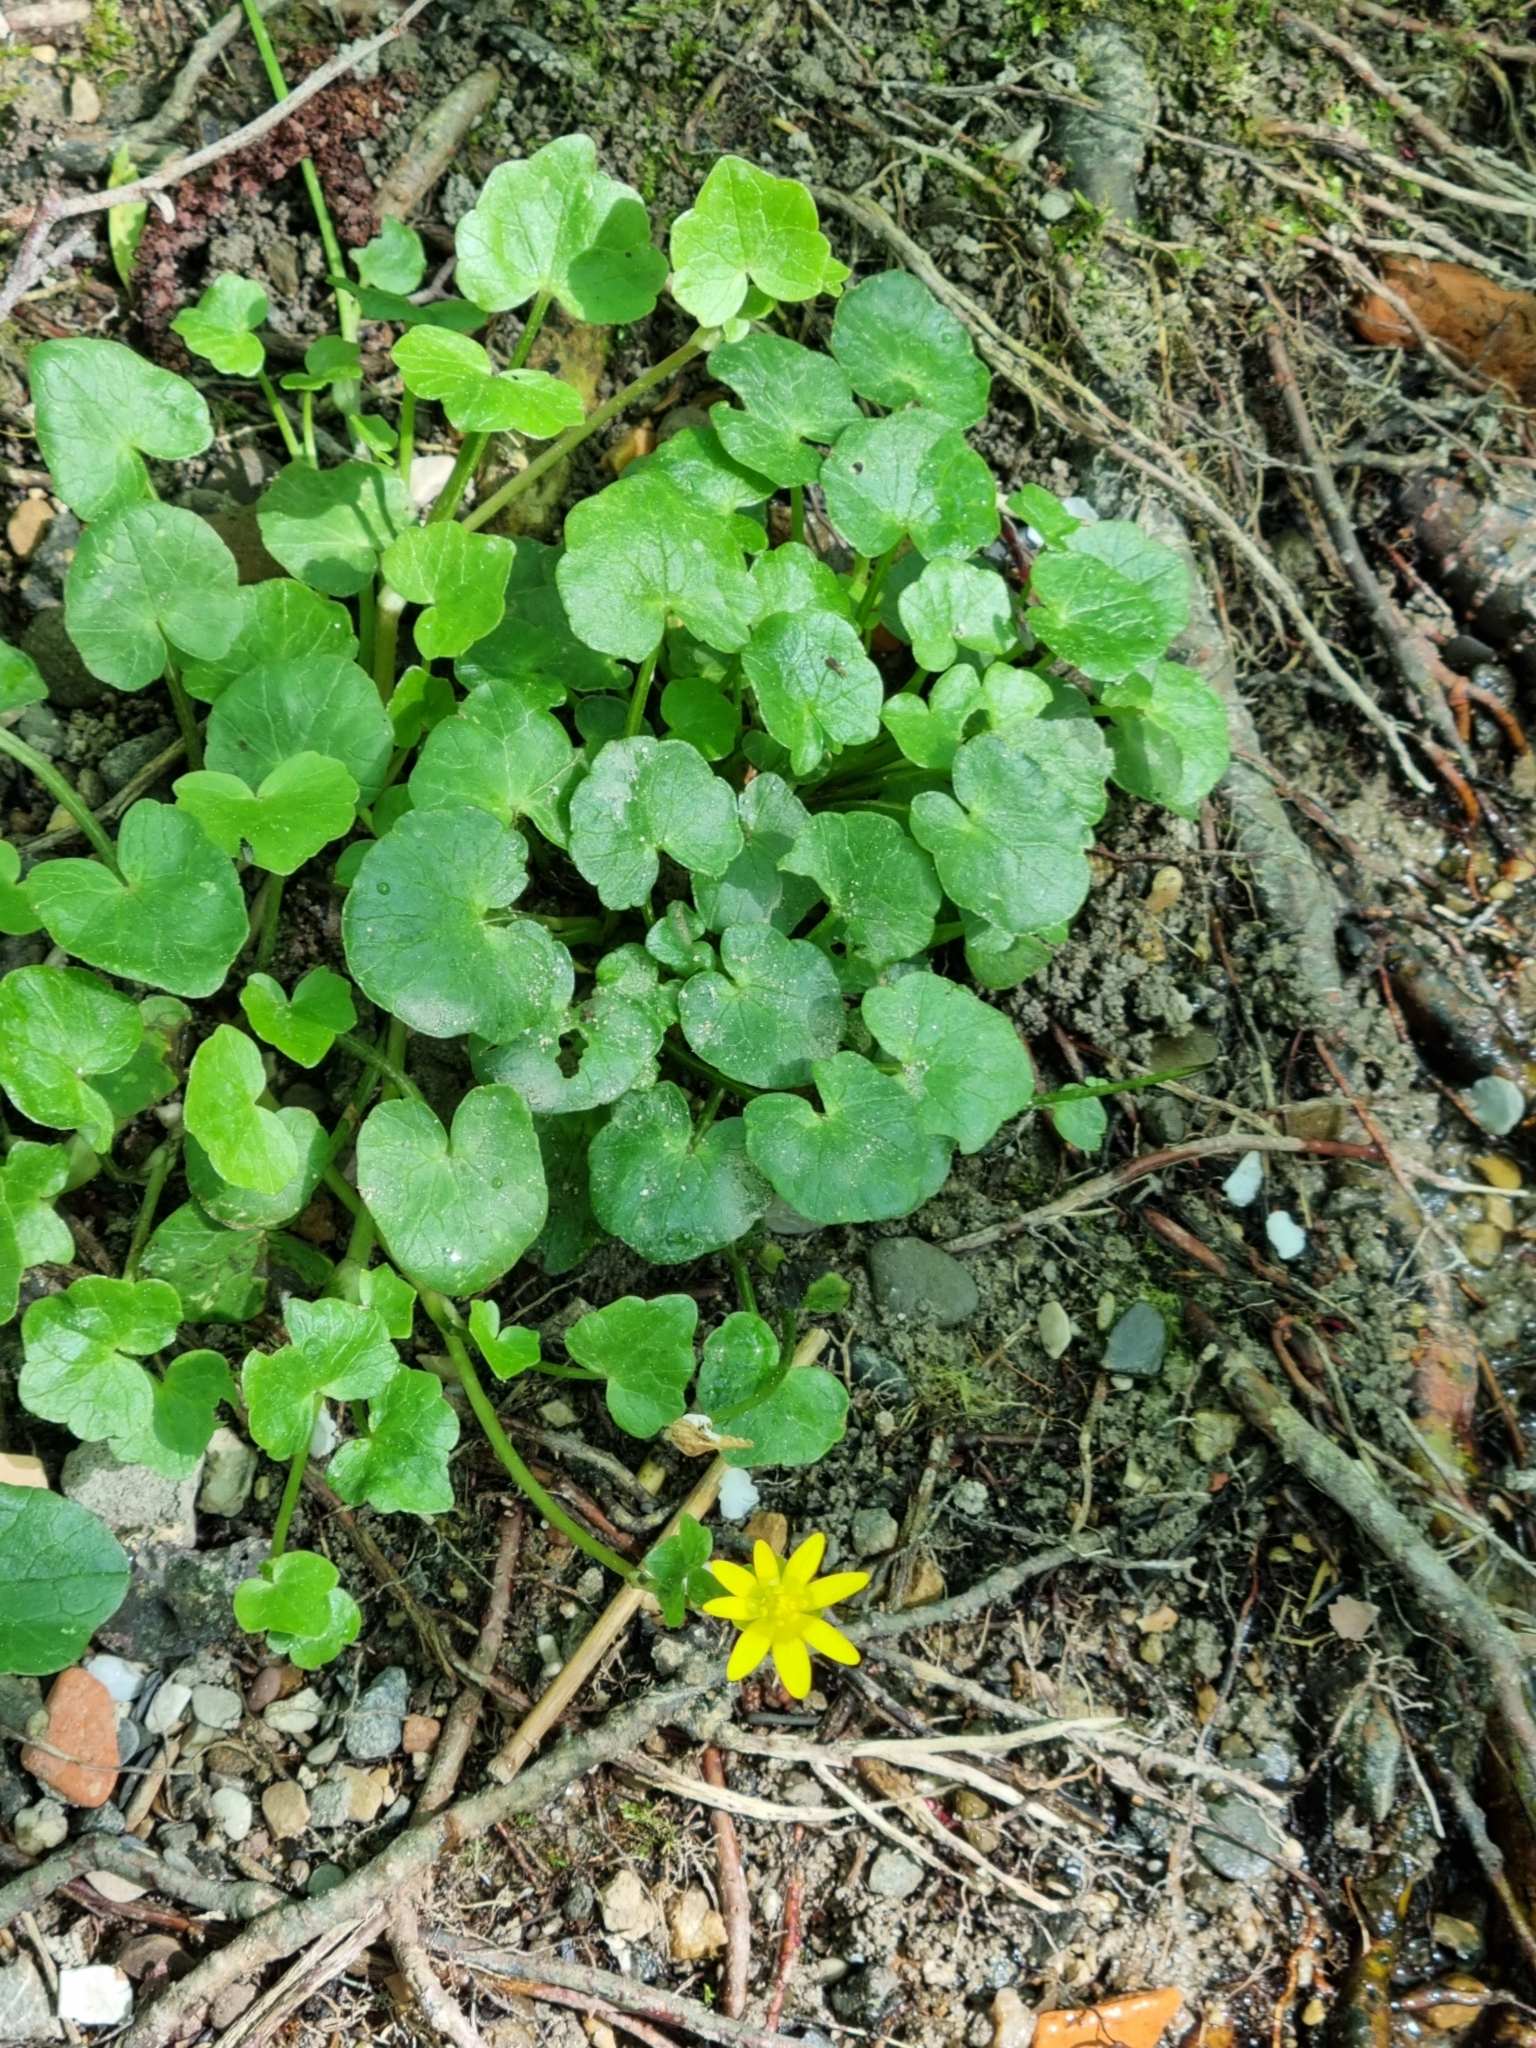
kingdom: Plantae
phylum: Tracheophyta
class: Magnoliopsida
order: Ranunculales
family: Ranunculaceae
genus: Ficaria
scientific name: Ficaria verna
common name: Lesser celandine
